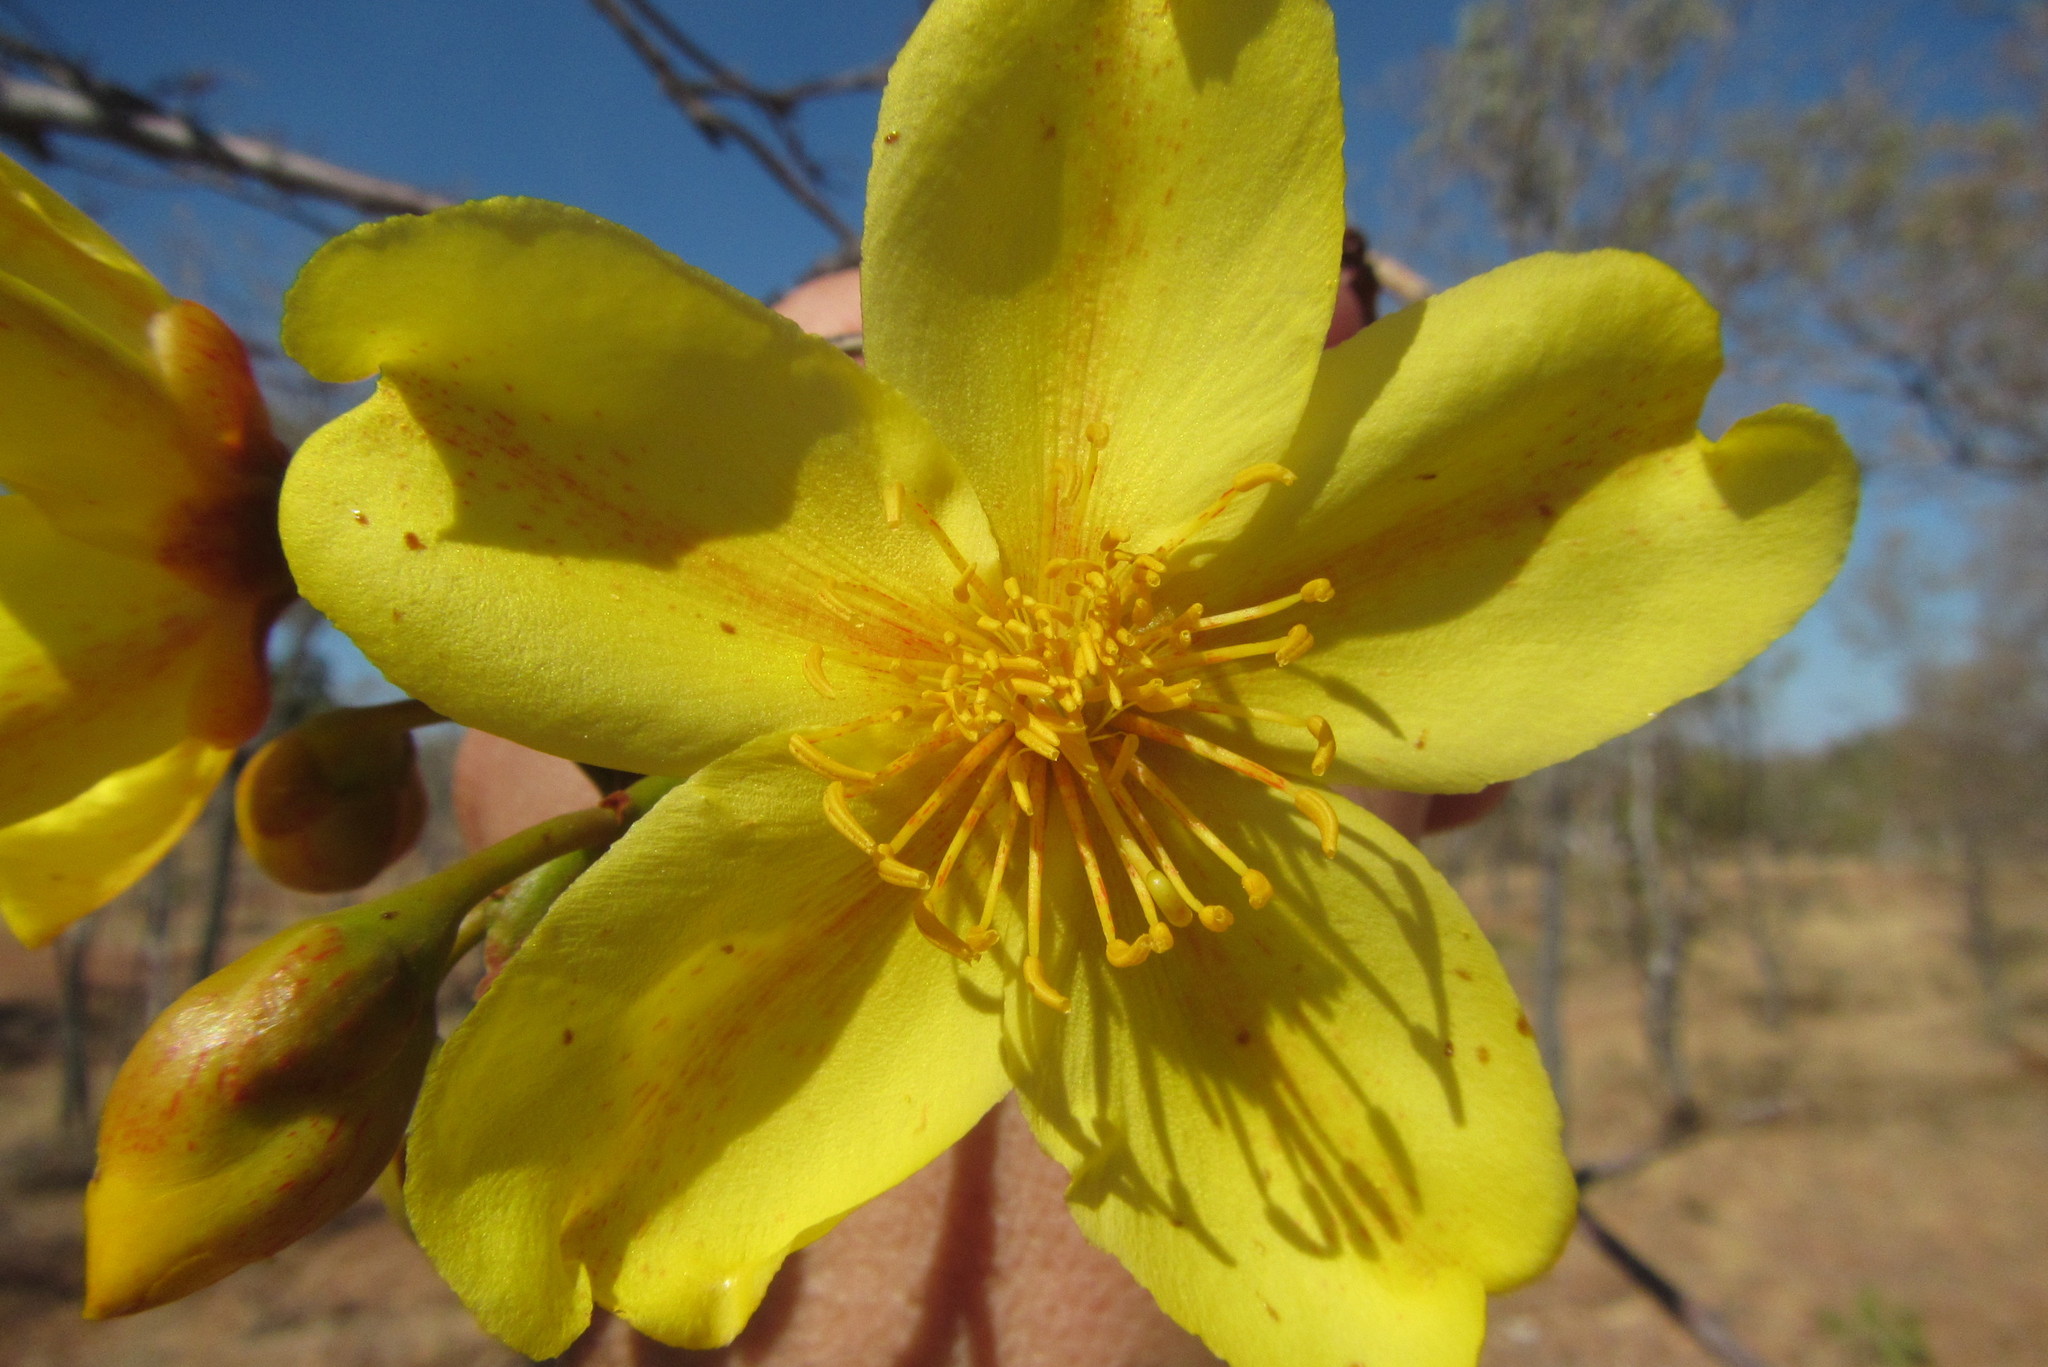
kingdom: Plantae
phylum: Tracheophyta
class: Magnoliopsida
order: Malvales
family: Cochlospermaceae
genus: Cochlospermum
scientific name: Cochlospermum gillivraei
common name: Cottontree
